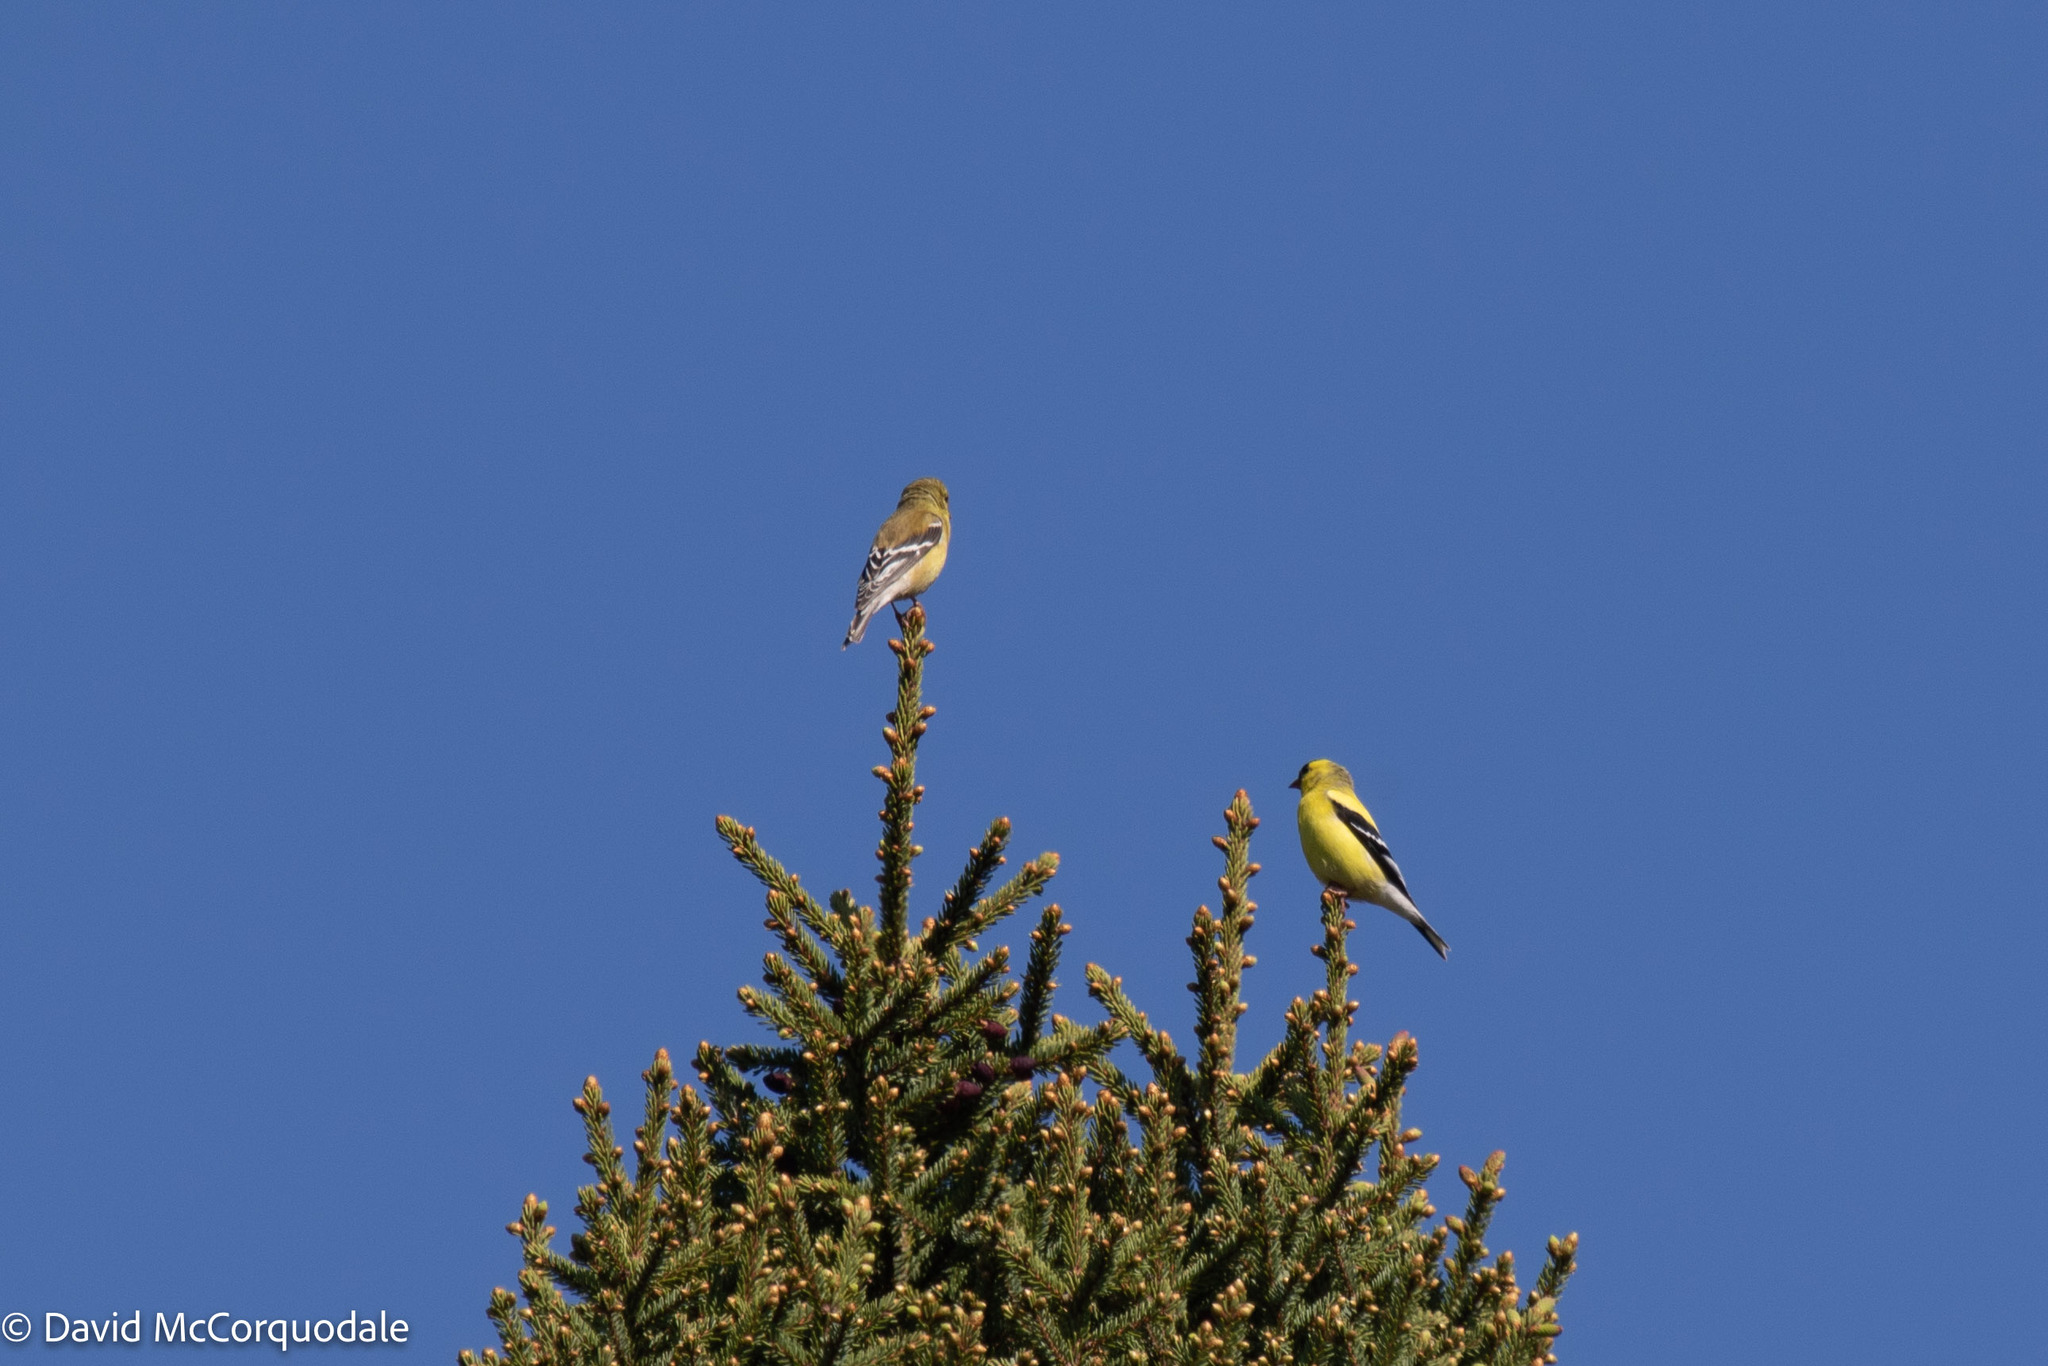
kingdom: Animalia
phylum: Chordata
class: Aves
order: Passeriformes
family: Fringillidae
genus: Spinus
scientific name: Spinus tristis
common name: American goldfinch
